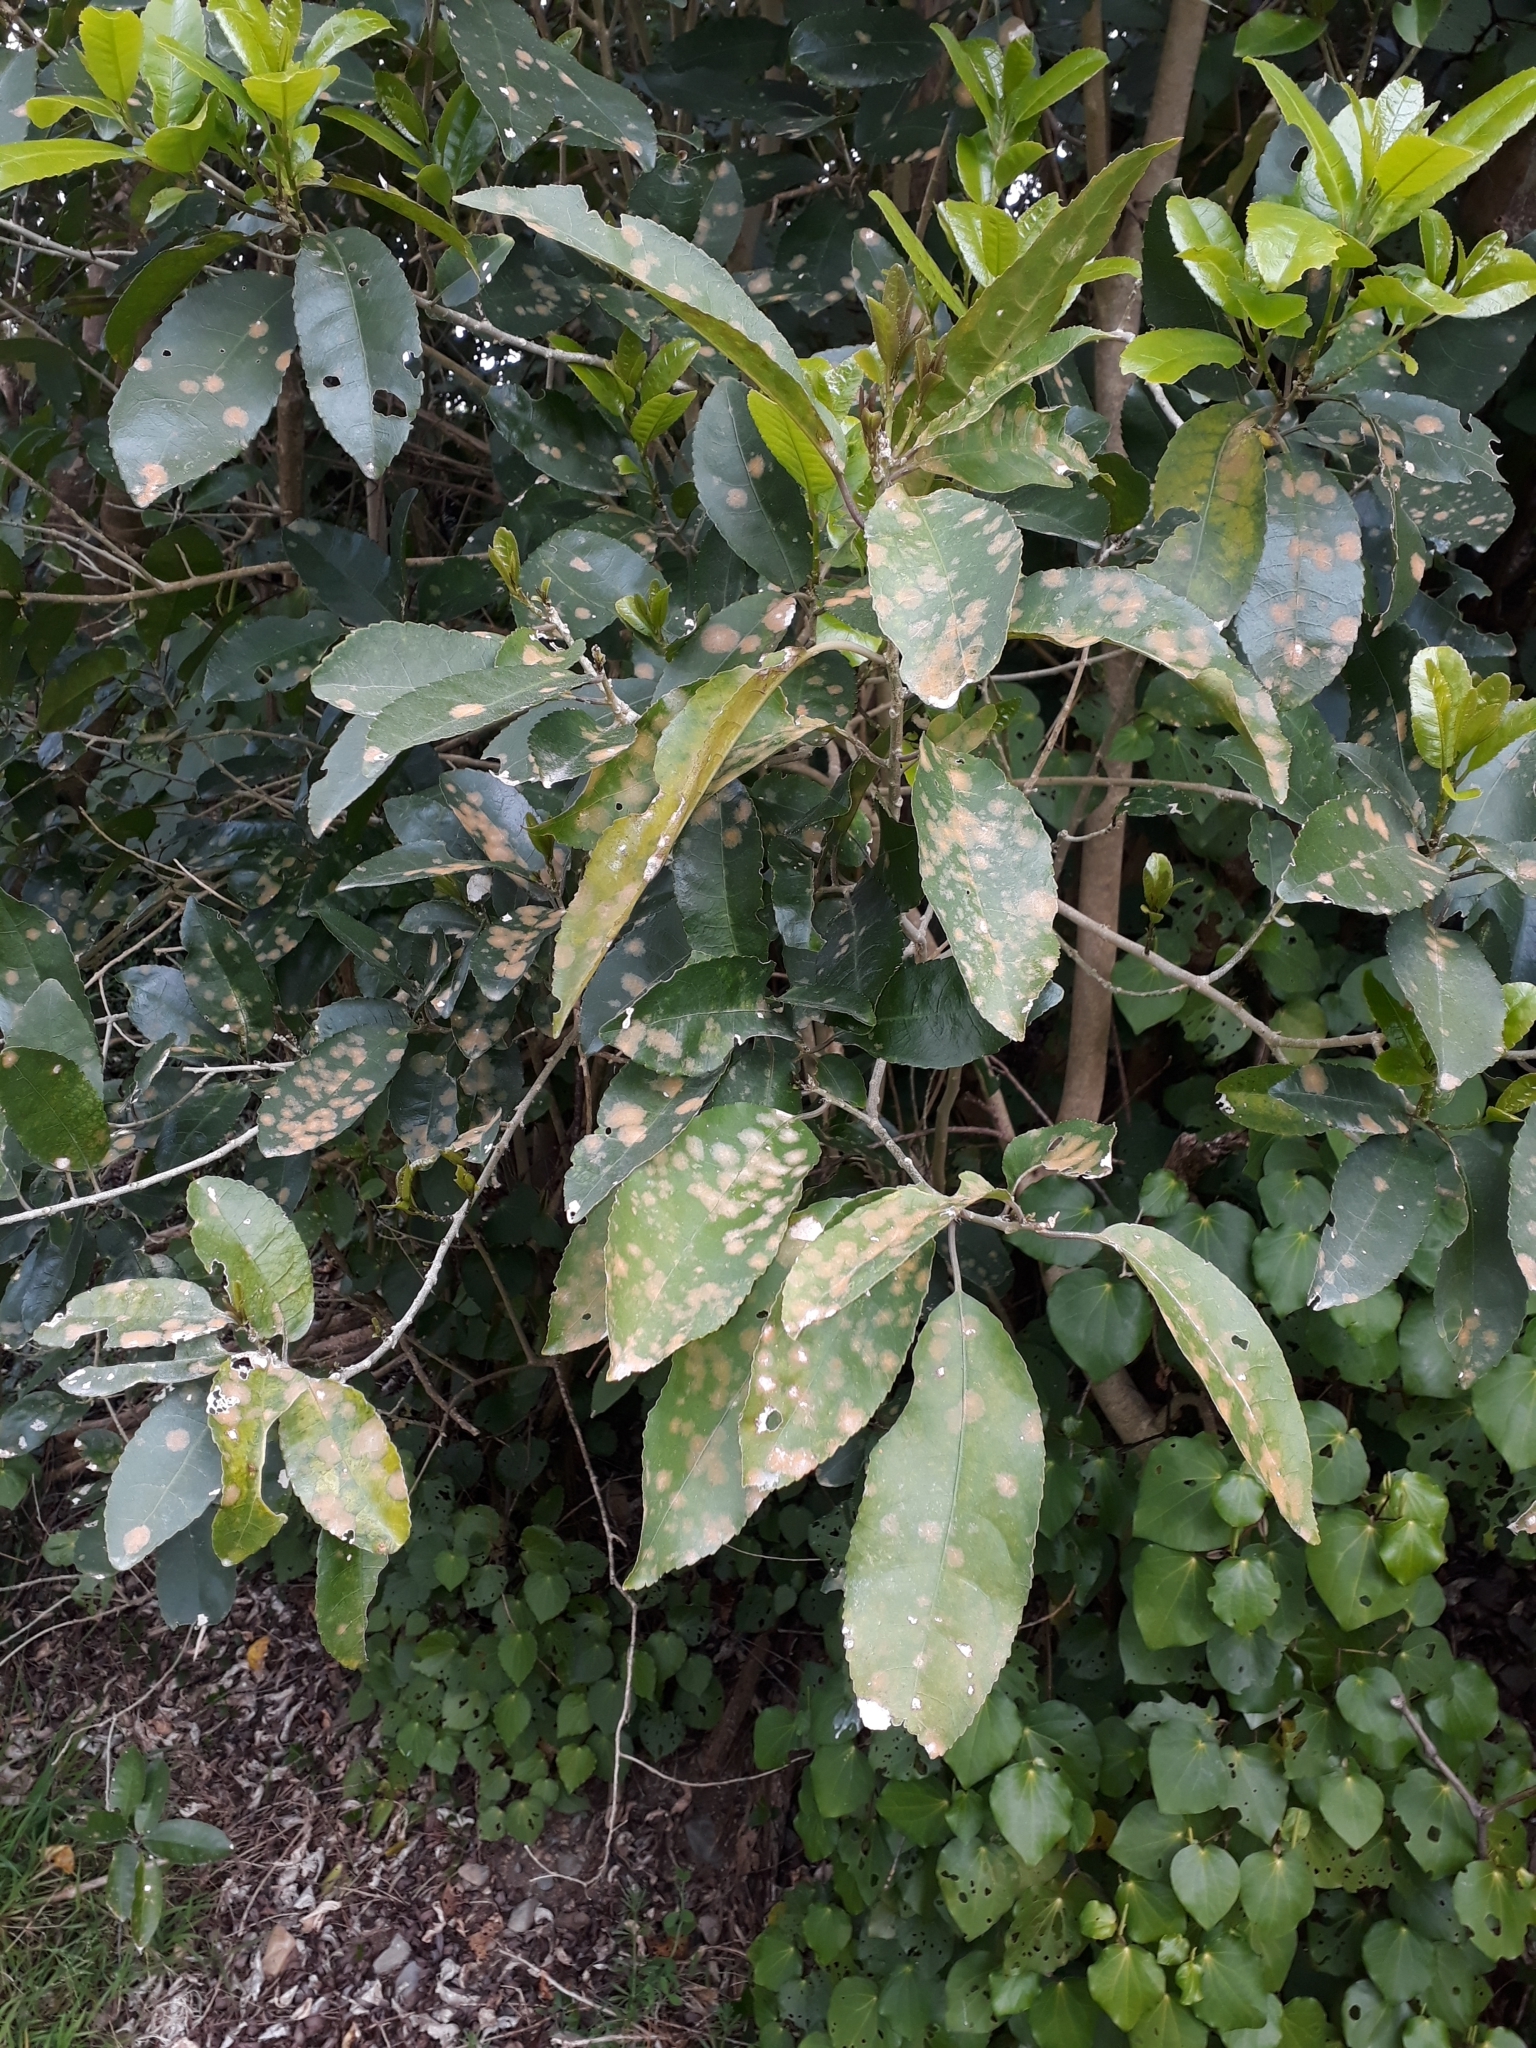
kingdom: Plantae
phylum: Chlorophyta
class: Ulvophyceae
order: Trentepohliales
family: Trentepohliaceae
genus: Cephaleuros
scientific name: Cephaleuros
